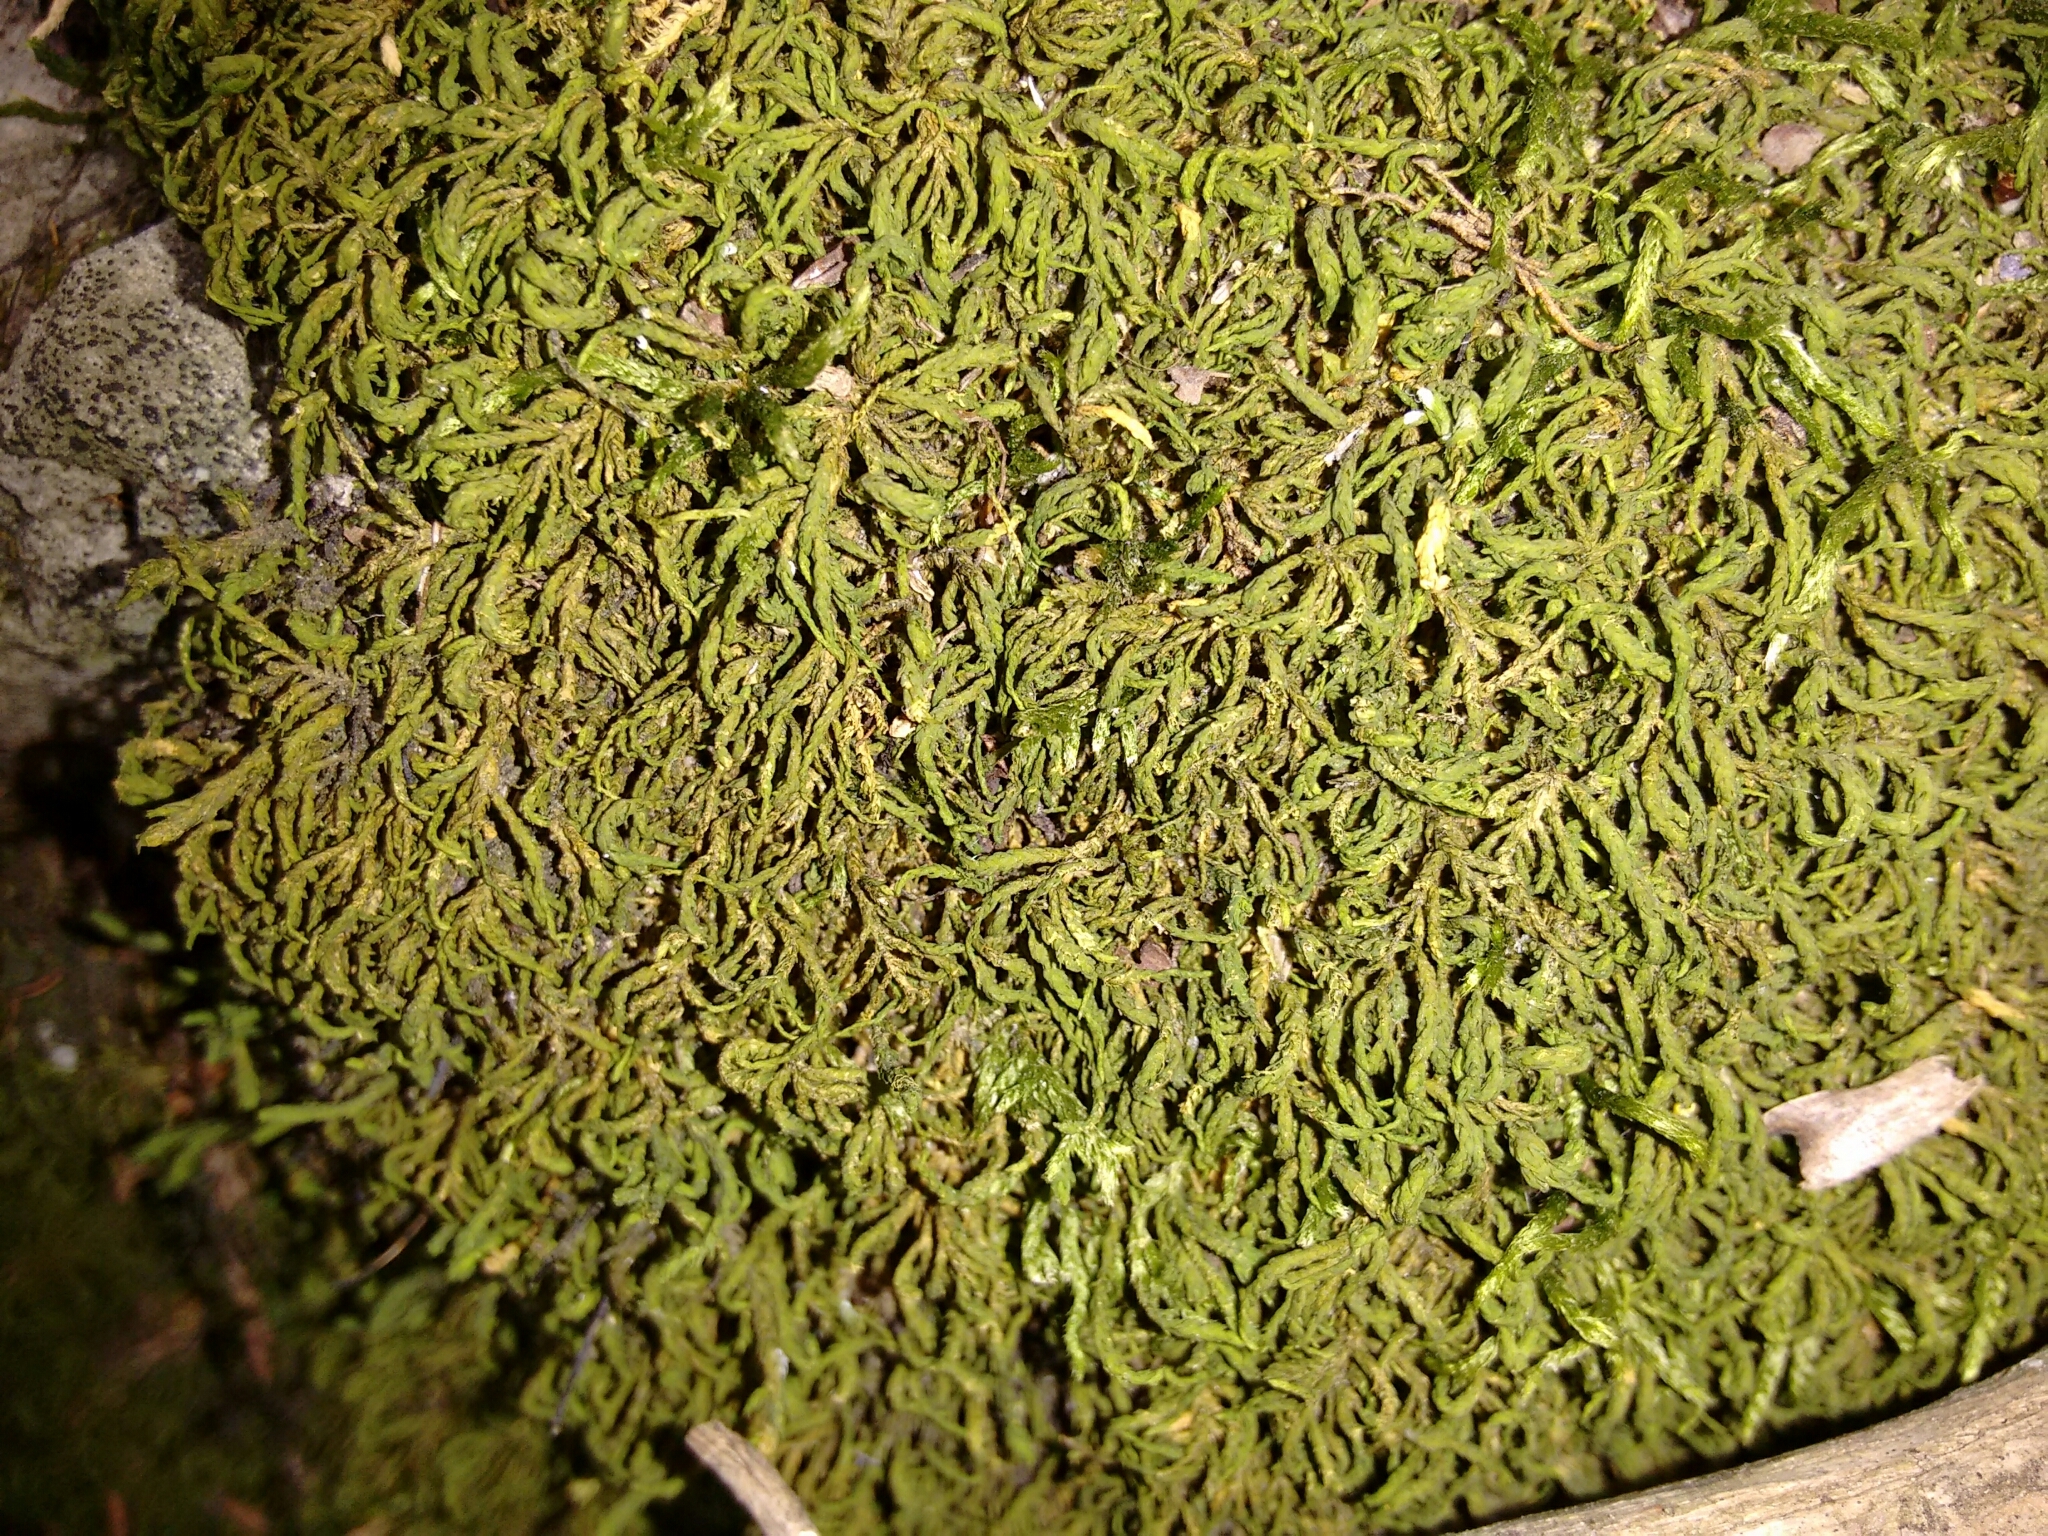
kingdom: Plantae
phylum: Bryophyta
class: Bryopsida
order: Hypnales
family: Neckeraceae
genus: Pseudanomodon
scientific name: Pseudanomodon attenuatus
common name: Tree-skirt moss
